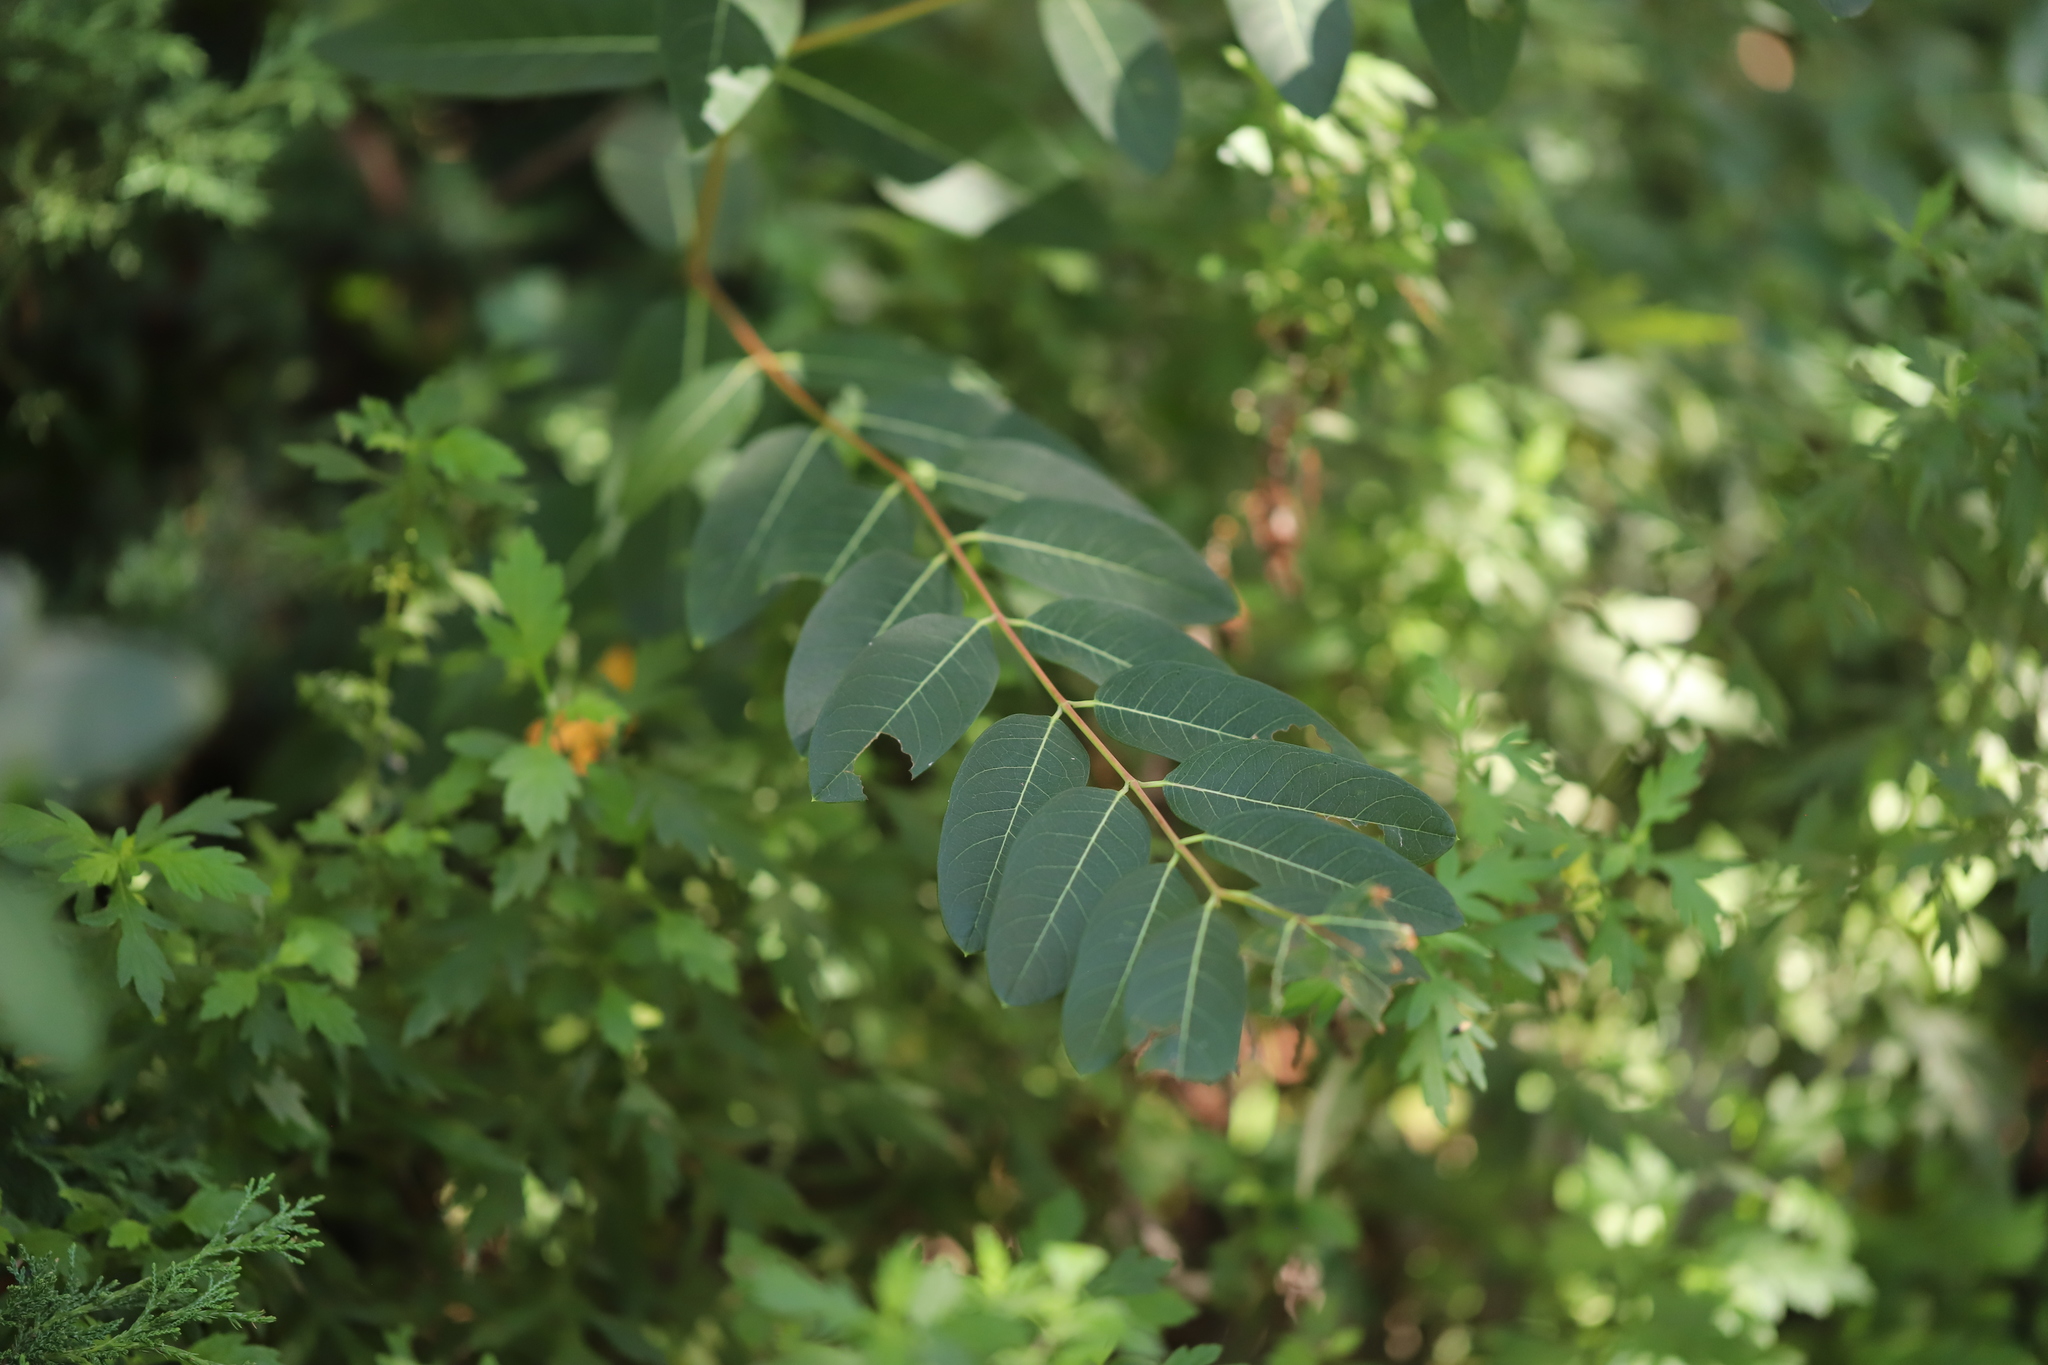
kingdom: Plantae
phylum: Tracheophyta
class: Magnoliopsida
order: Gentianales
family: Apocynaceae
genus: Apocynum
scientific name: Apocynum cannabinum
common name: Hemp dogbane
